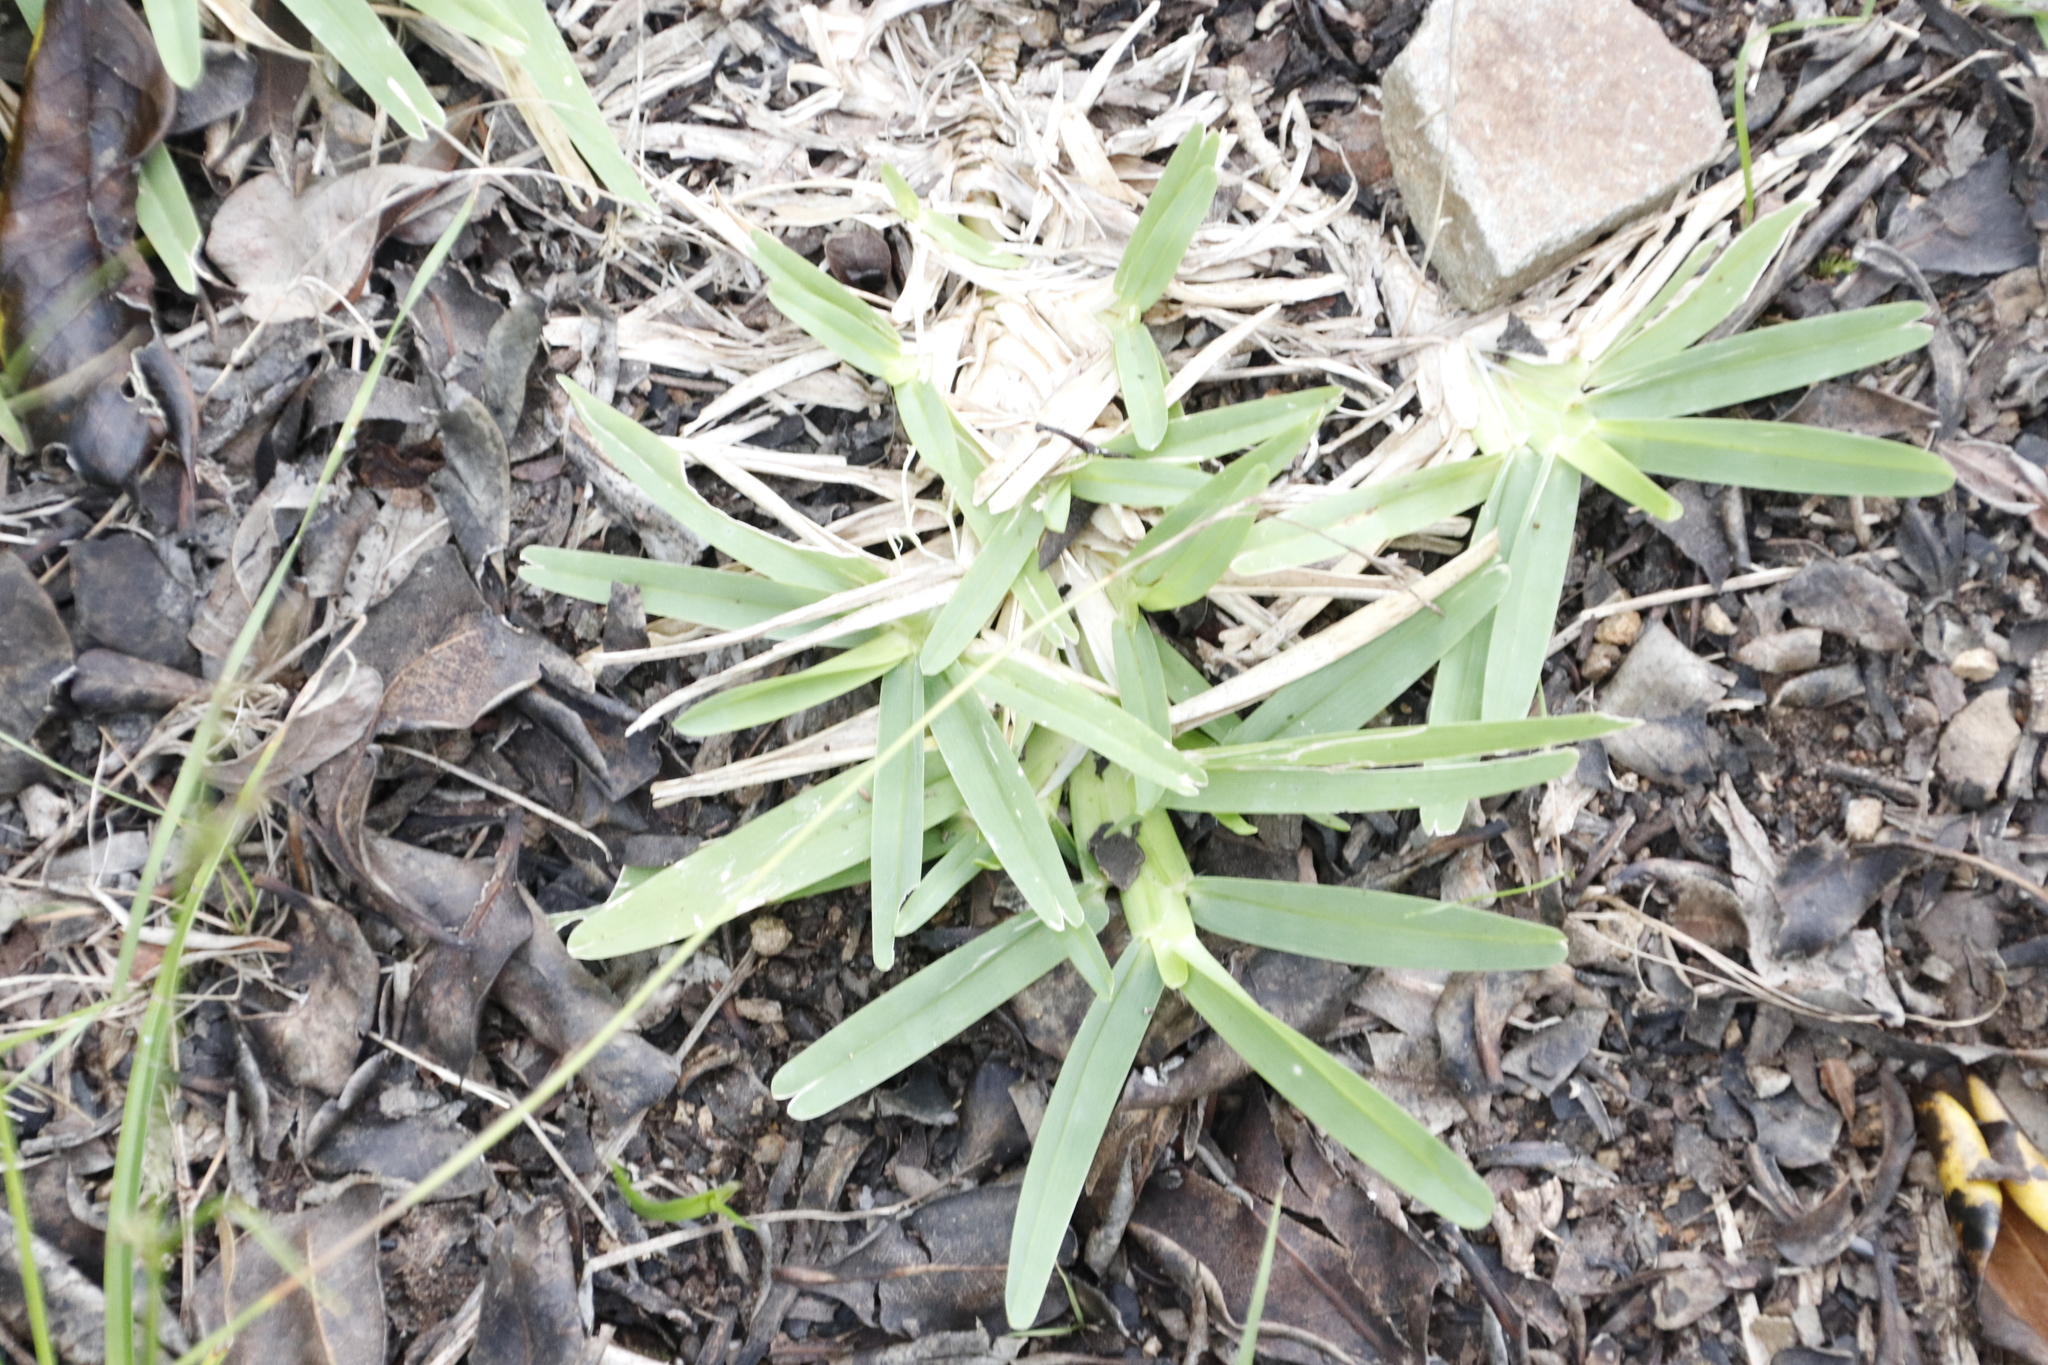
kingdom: Plantae
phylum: Tracheophyta
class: Liliopsida
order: Poales
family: Poaceae
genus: Stenotaphrum
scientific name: Stenotaphrum secundatum
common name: St. augustine grass
